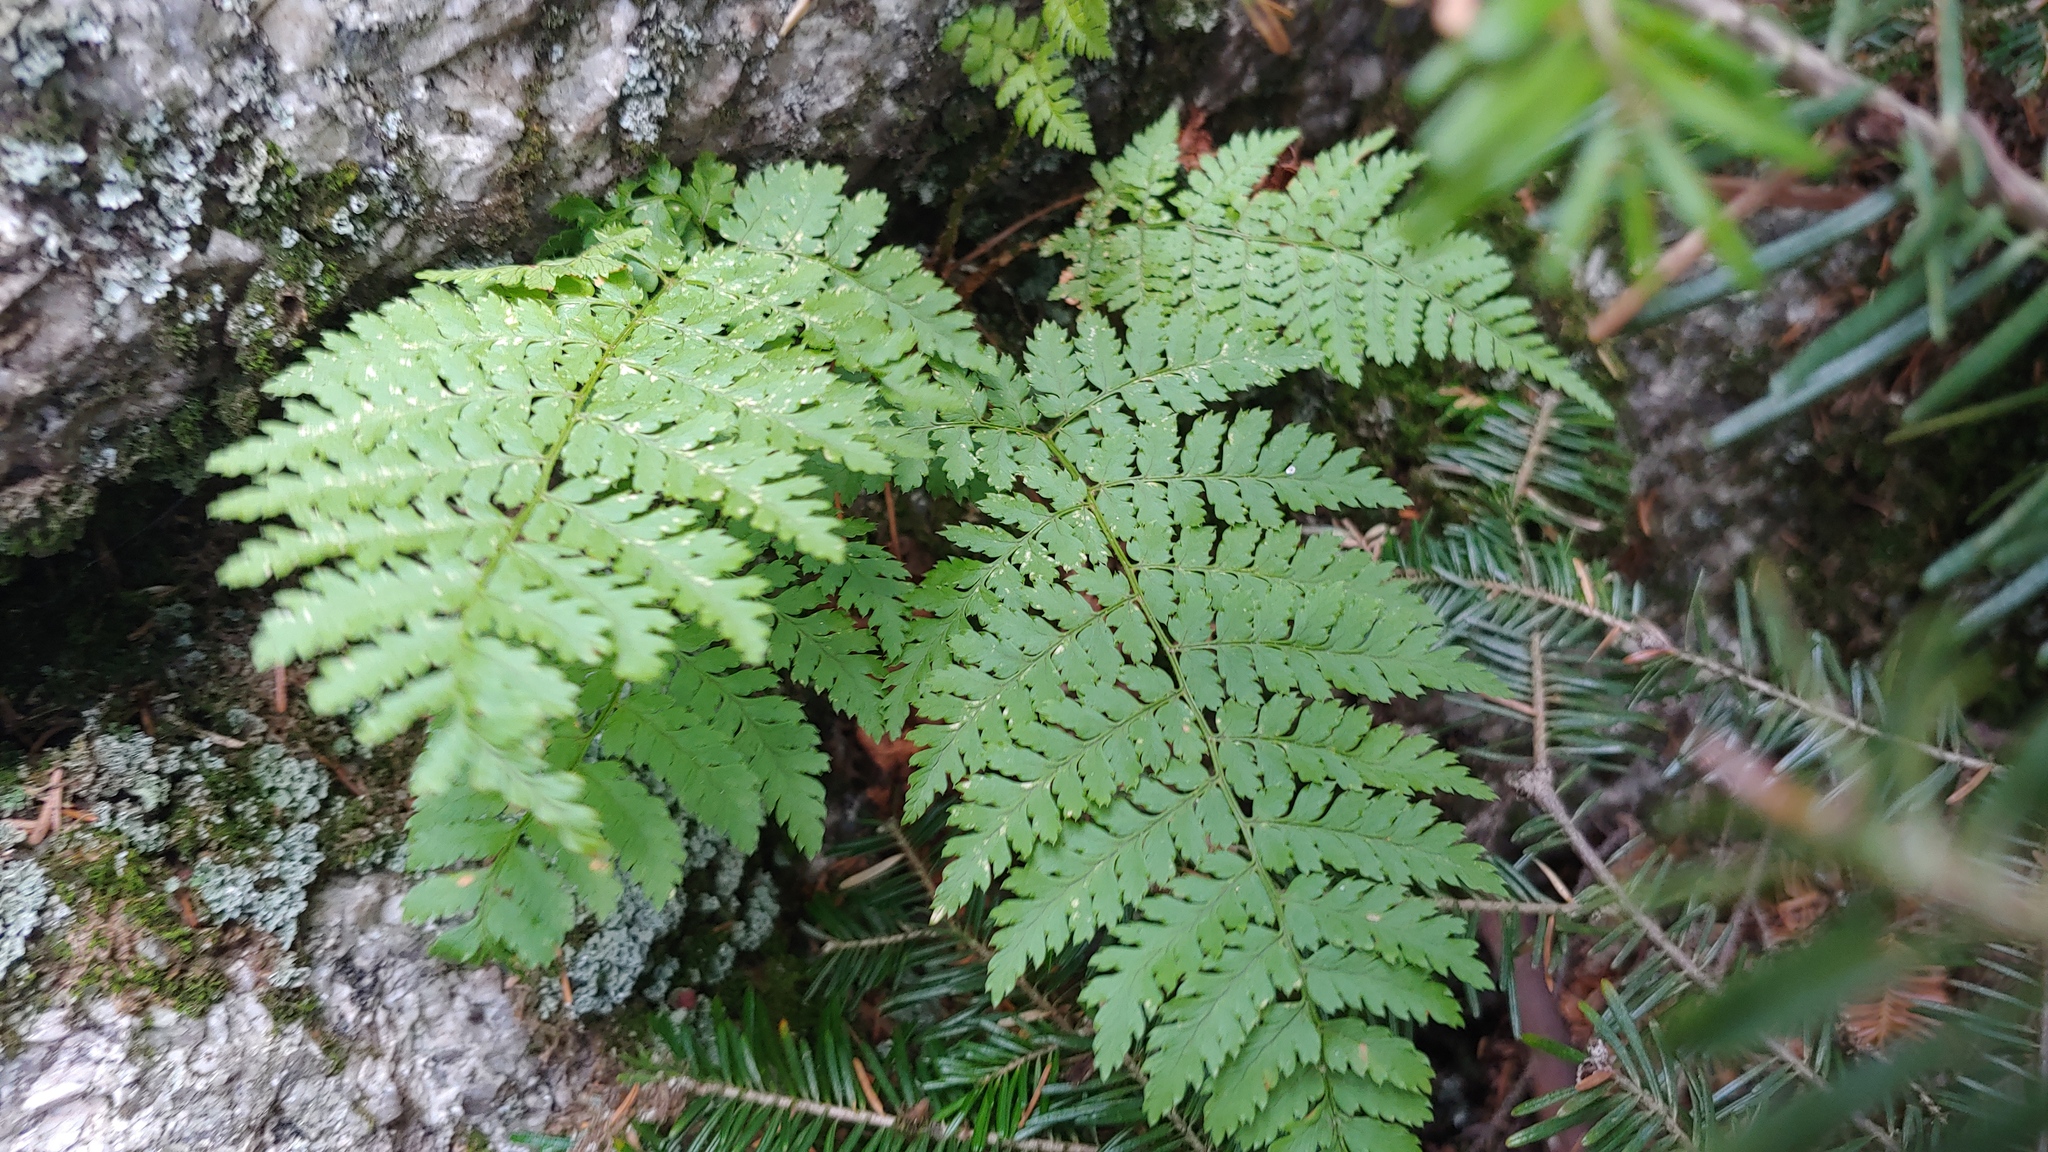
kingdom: Plantae
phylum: Tracheophyta
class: Polypodiopsida
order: Polypodiales
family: Dryopteridaceae
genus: Dryopteris
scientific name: Dryopteris carthusiana
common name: Narrow buckler-fern
